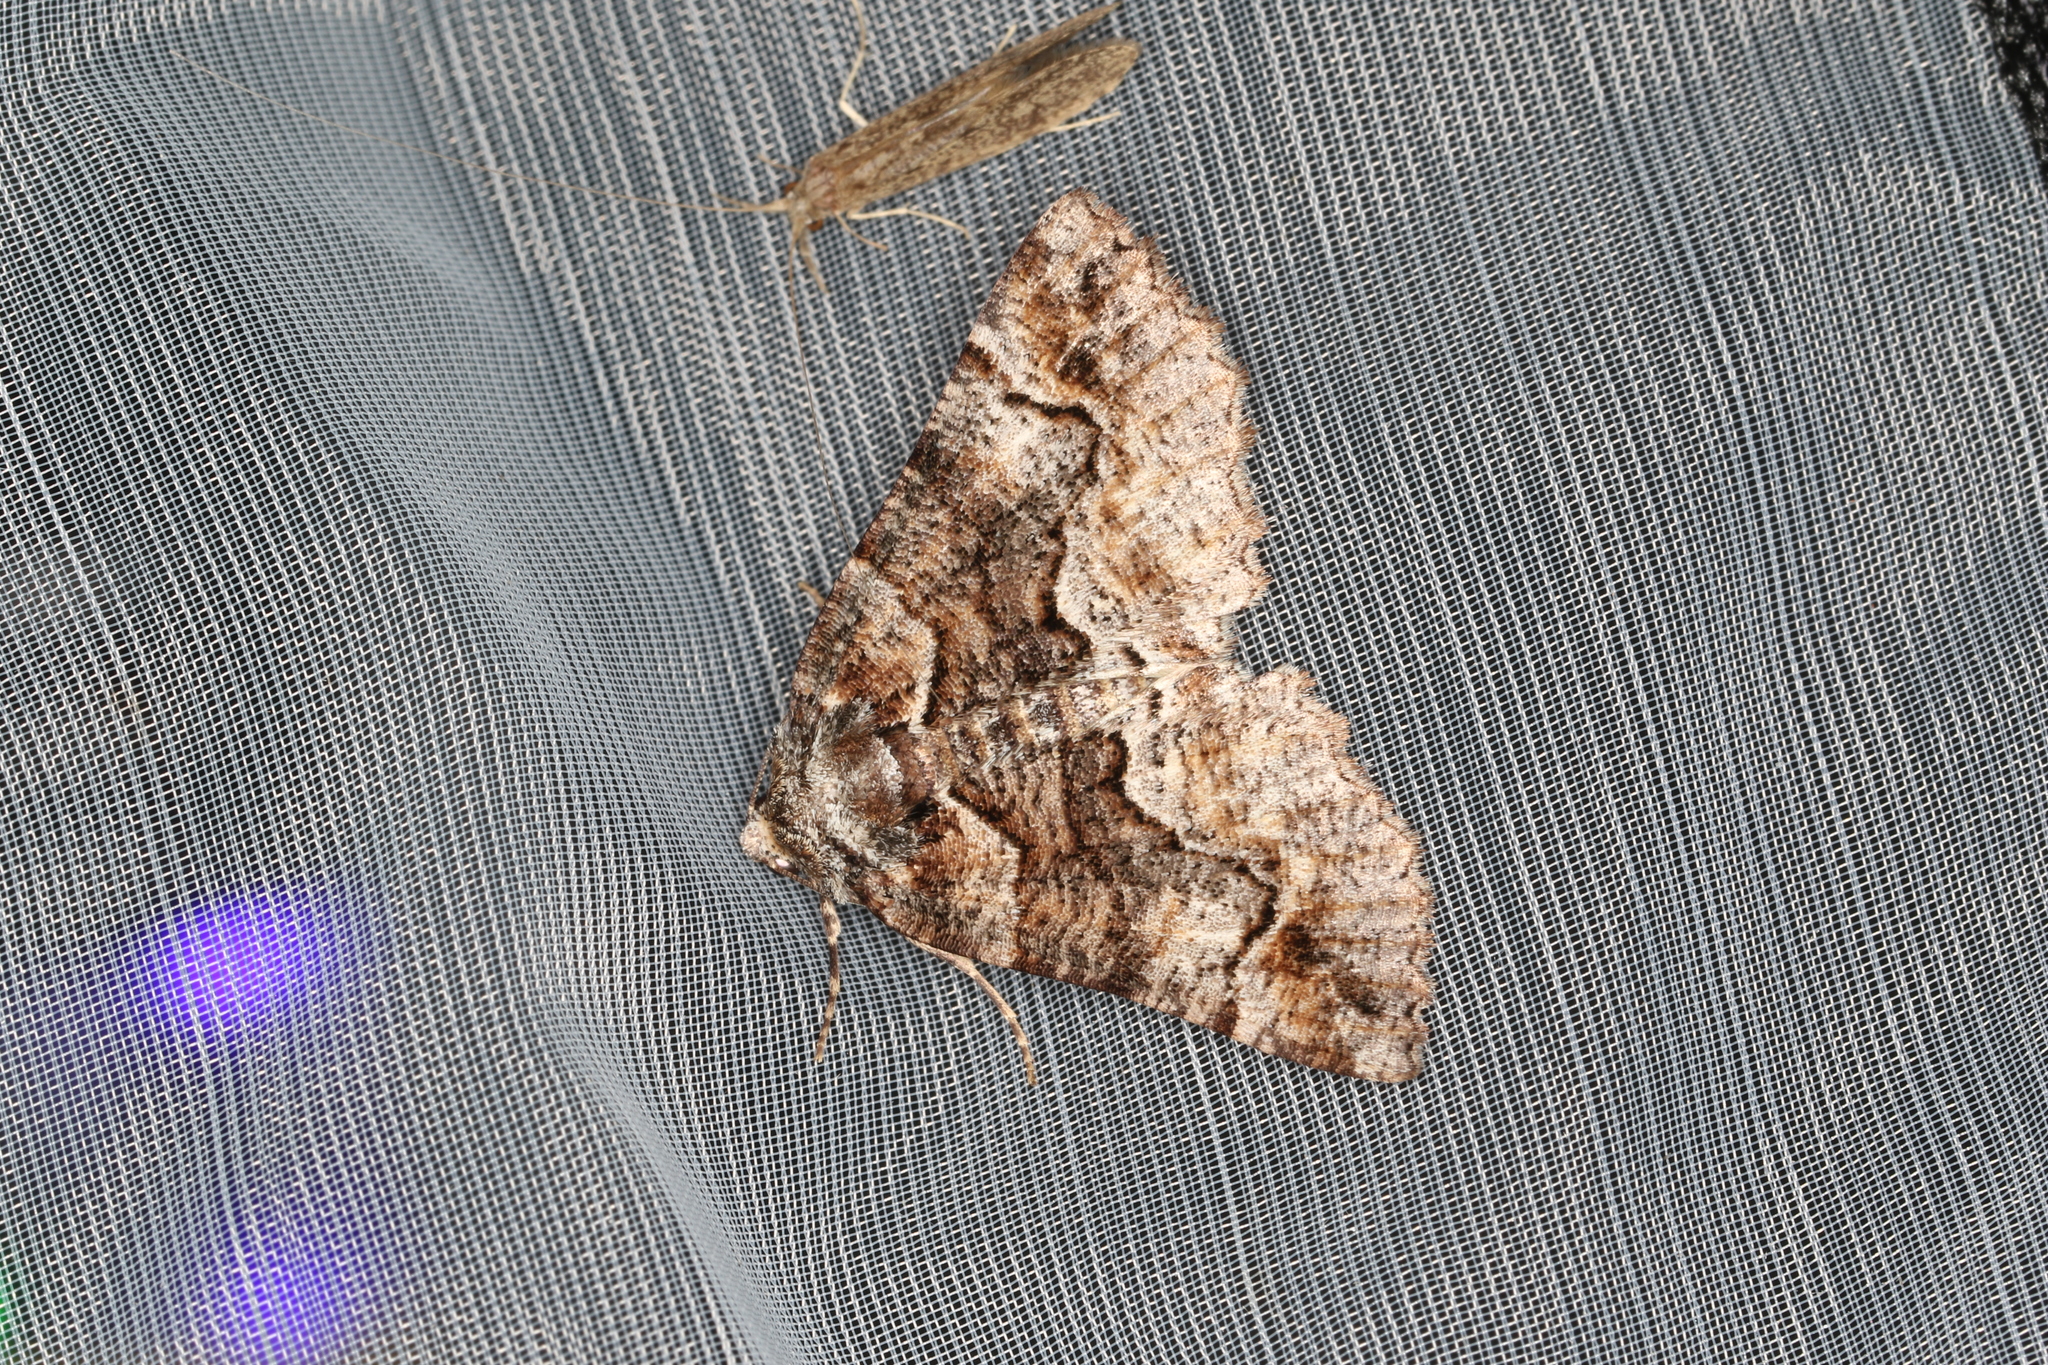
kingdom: Animalia
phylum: Arthropoda
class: Insecta
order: Lepidoptera
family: Geometridae
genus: Gastrina
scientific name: Gastrina cristaria
